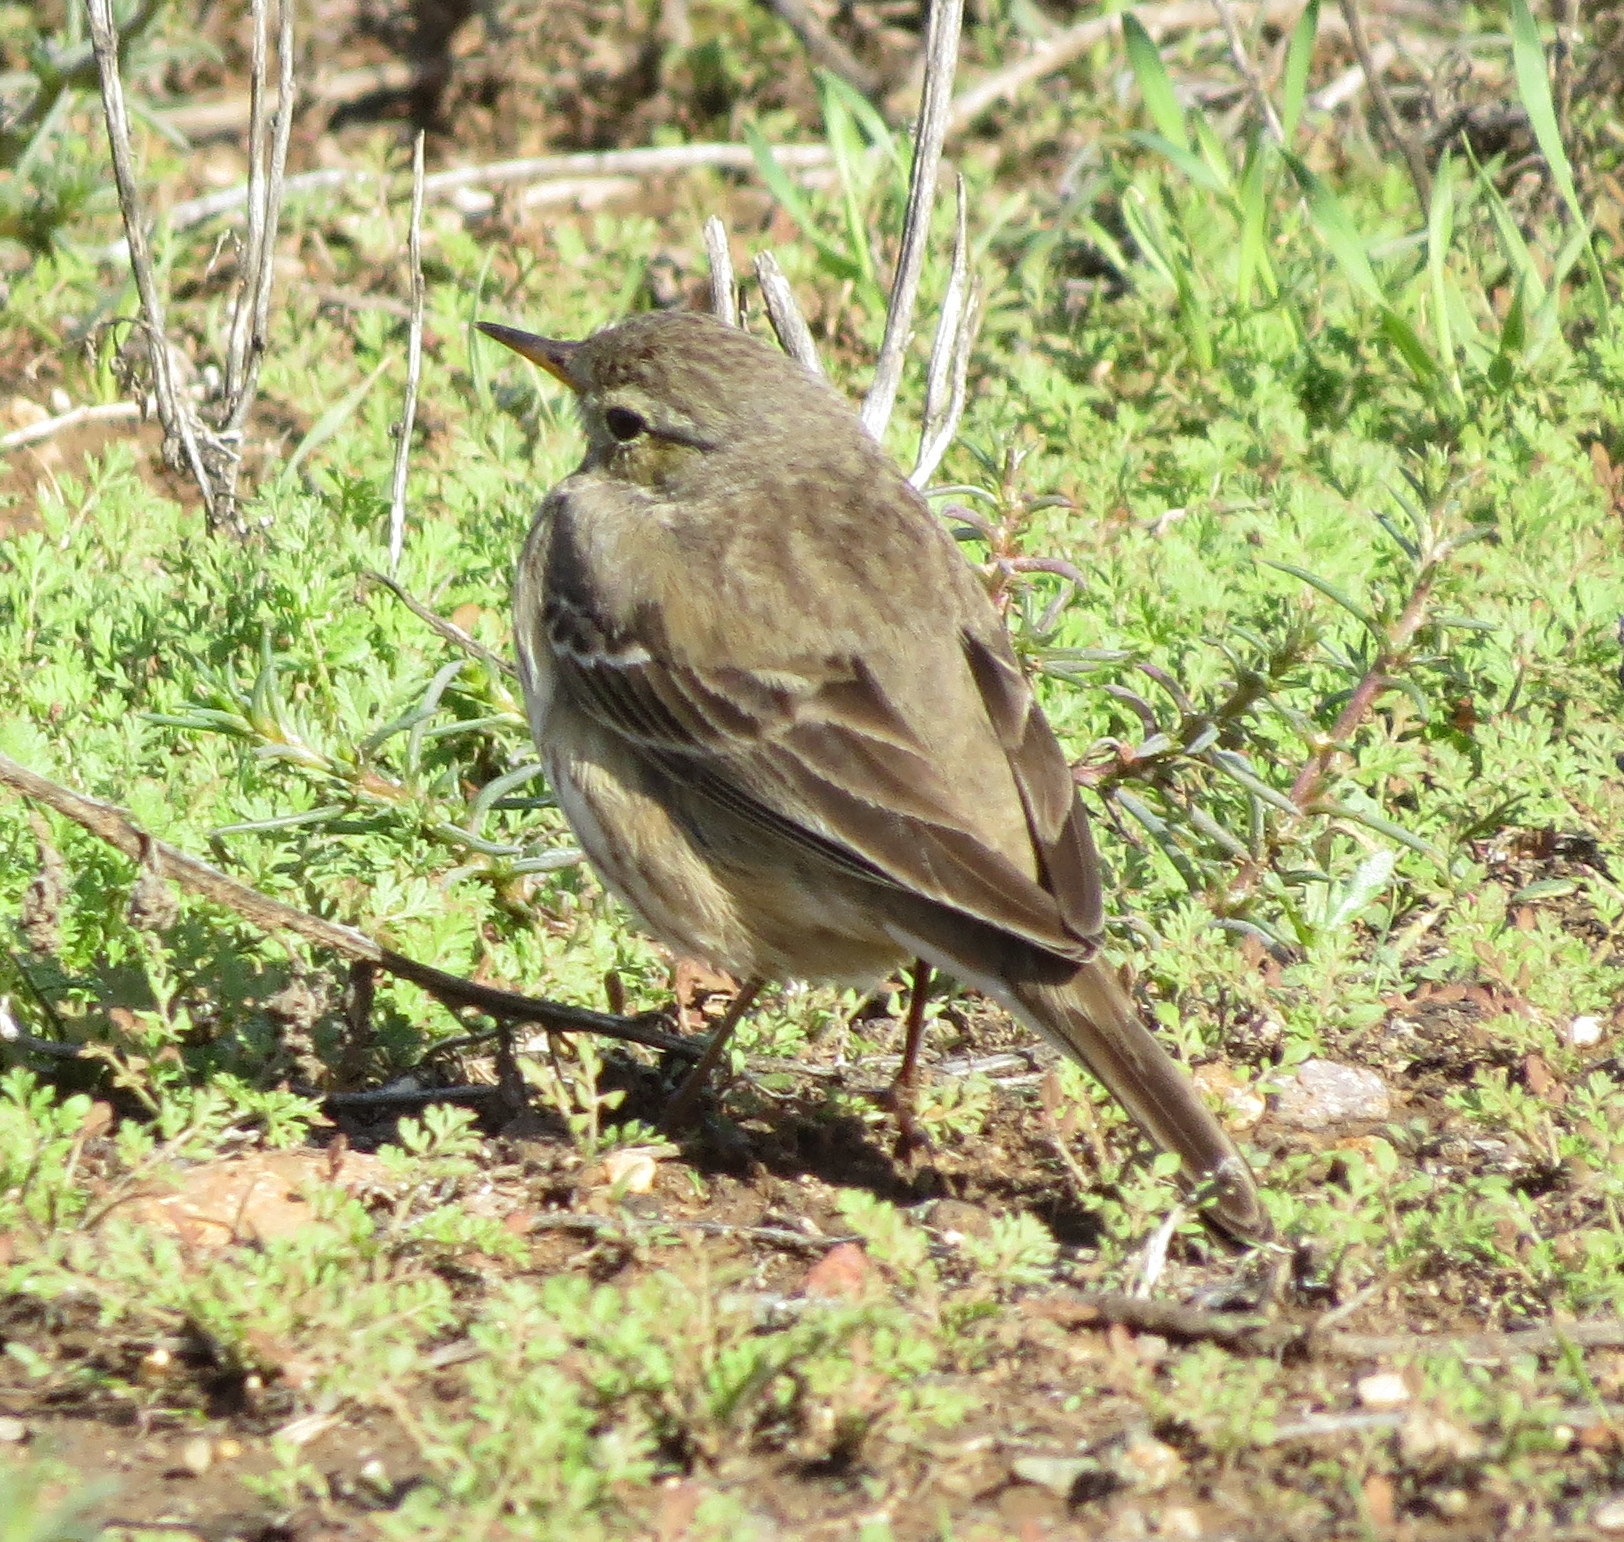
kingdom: Animalia
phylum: Chordata
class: Aves
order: Passeriformes
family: Motacillidae
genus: Anthus
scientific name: Anthus rubescens
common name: Buff-bellied pipit
